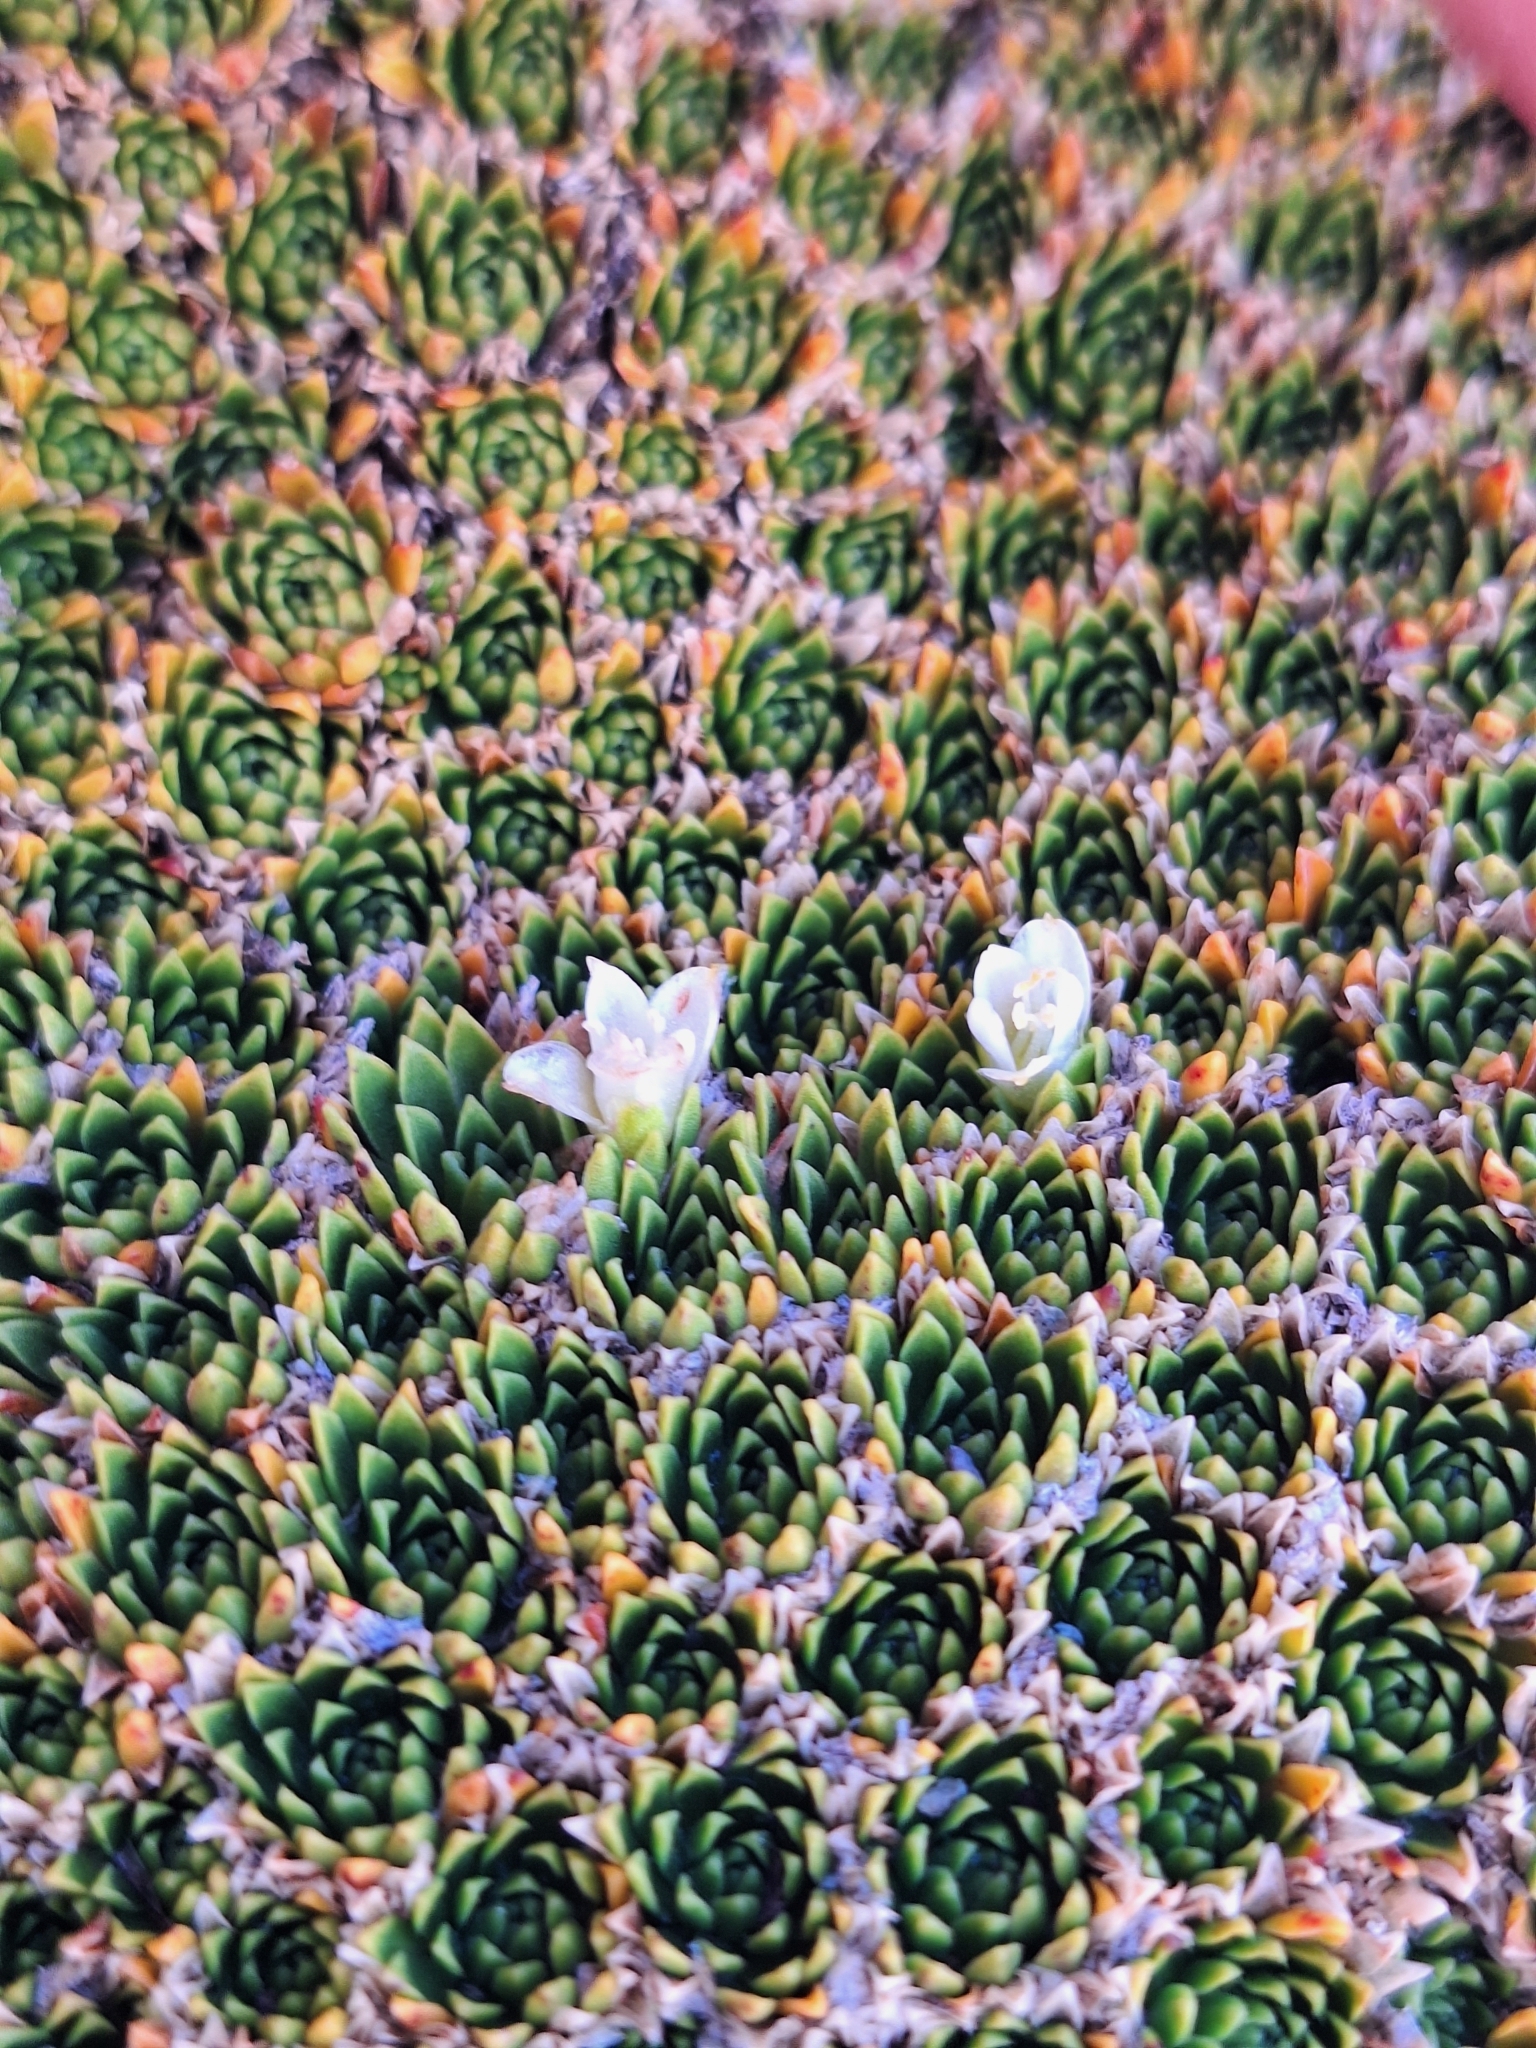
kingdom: Plantae
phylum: Tracheophyta
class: Magnoliopsida
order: Caryophyllales
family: Montiaceae
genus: Hectorella
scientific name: Hectorella caespitosa
